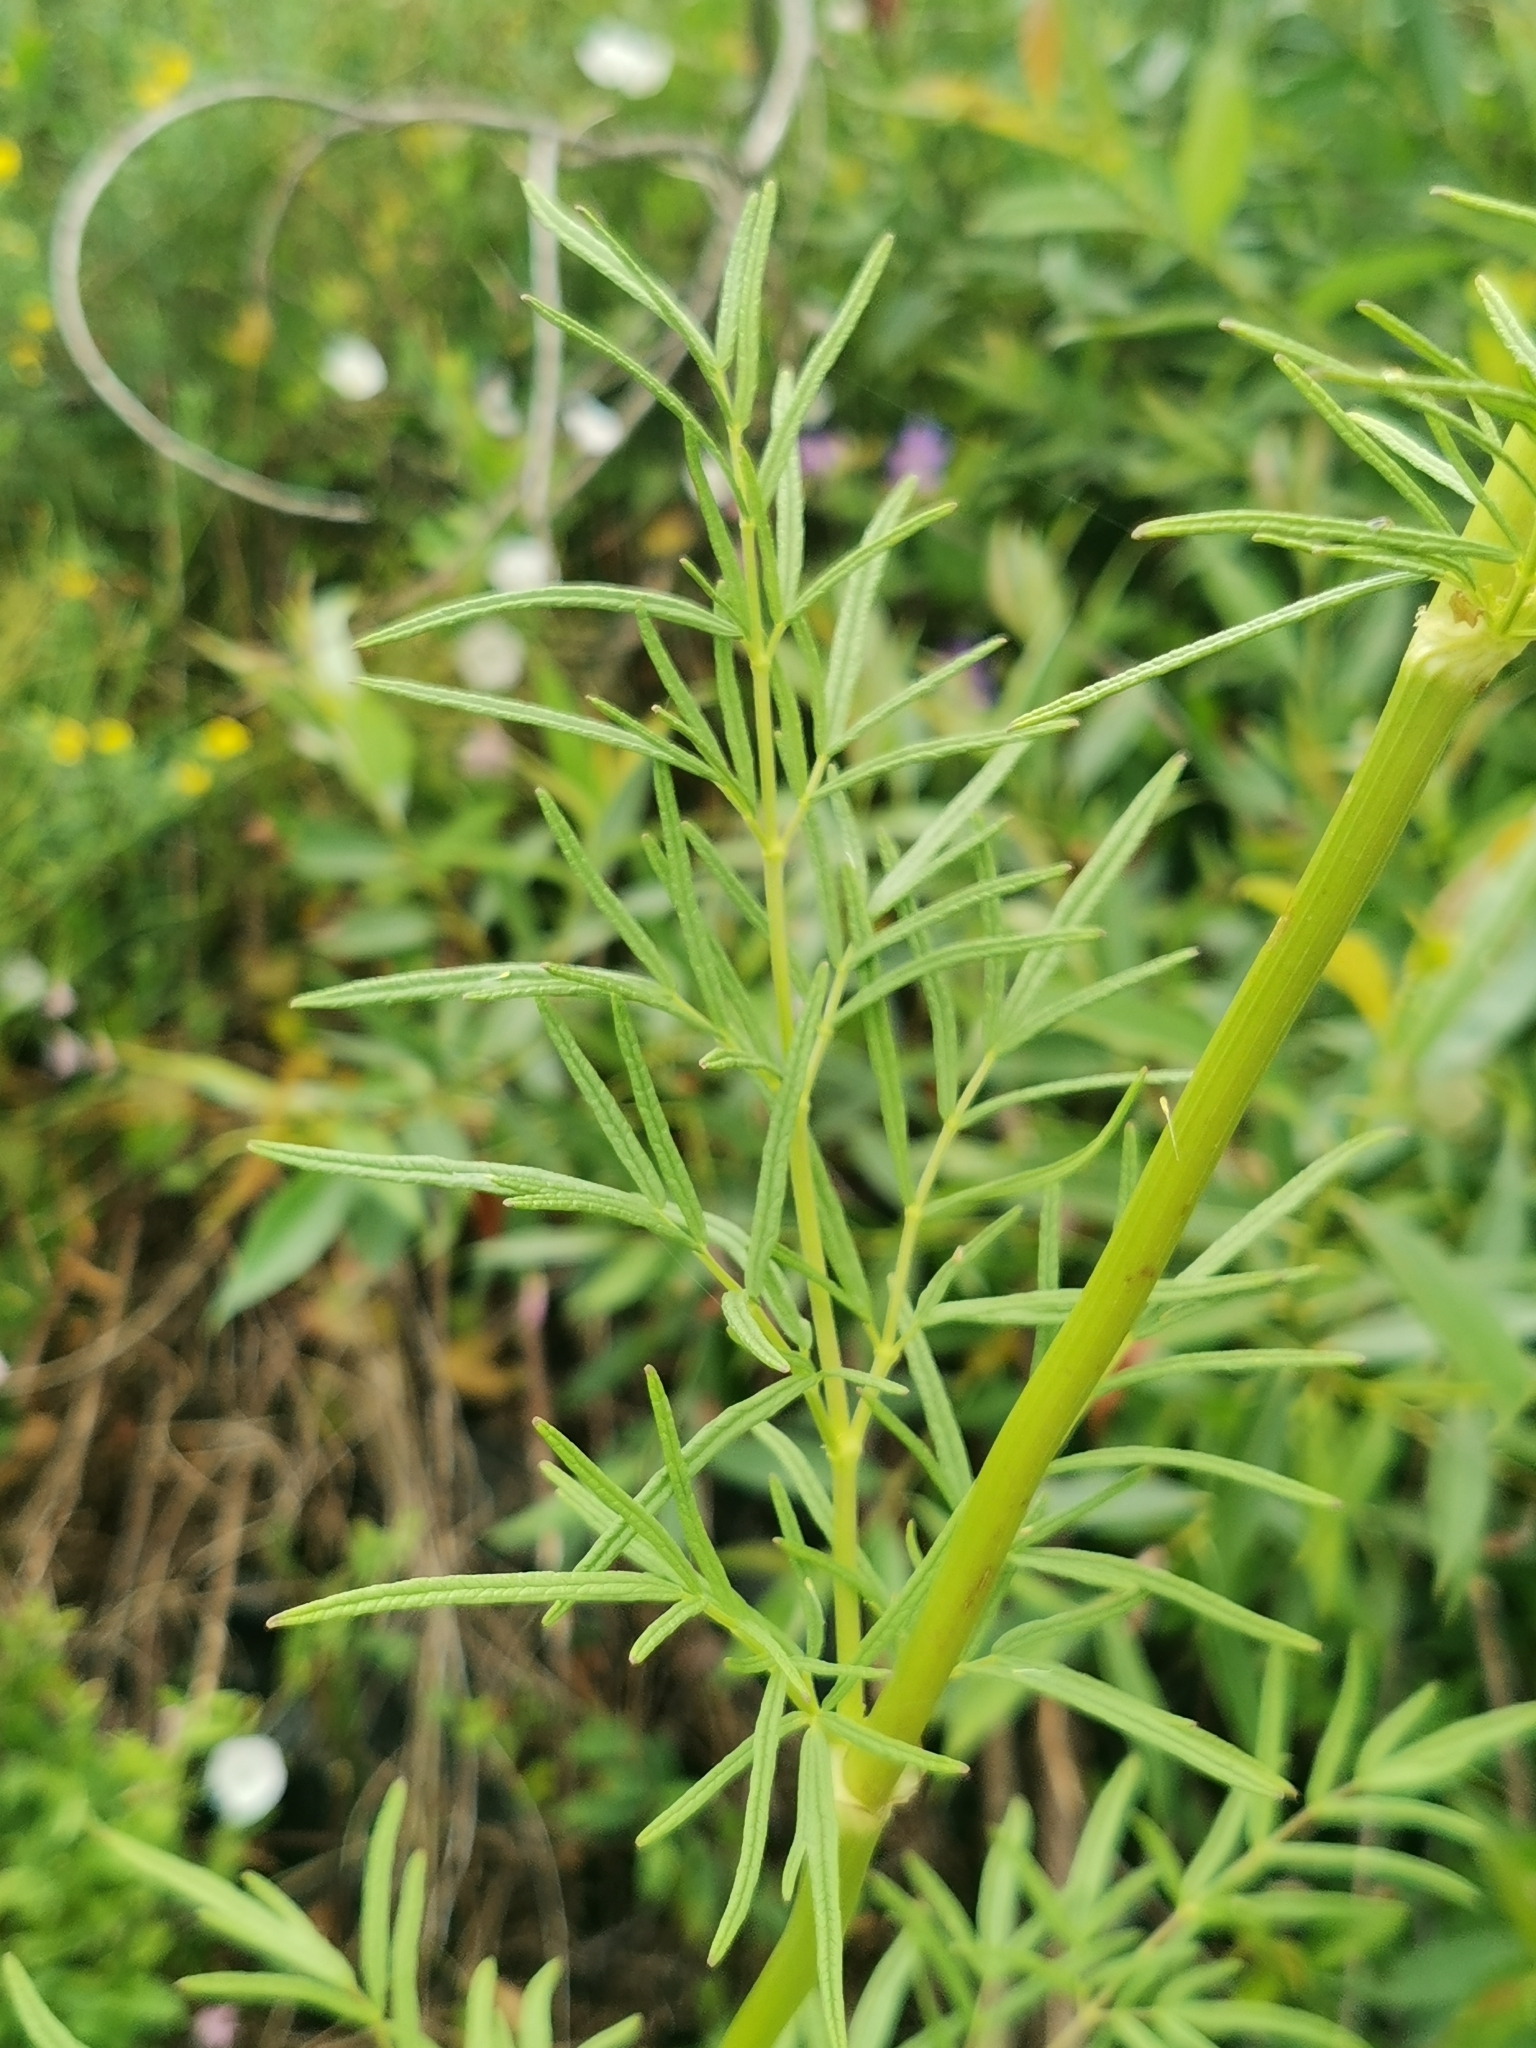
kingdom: Plantae
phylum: Tracheophyta
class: Magnoliopsida
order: Ranunculales
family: Ranunculaceae
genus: Thalictrum
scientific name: Thalictrum lucidum
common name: Shining meadow-rue
